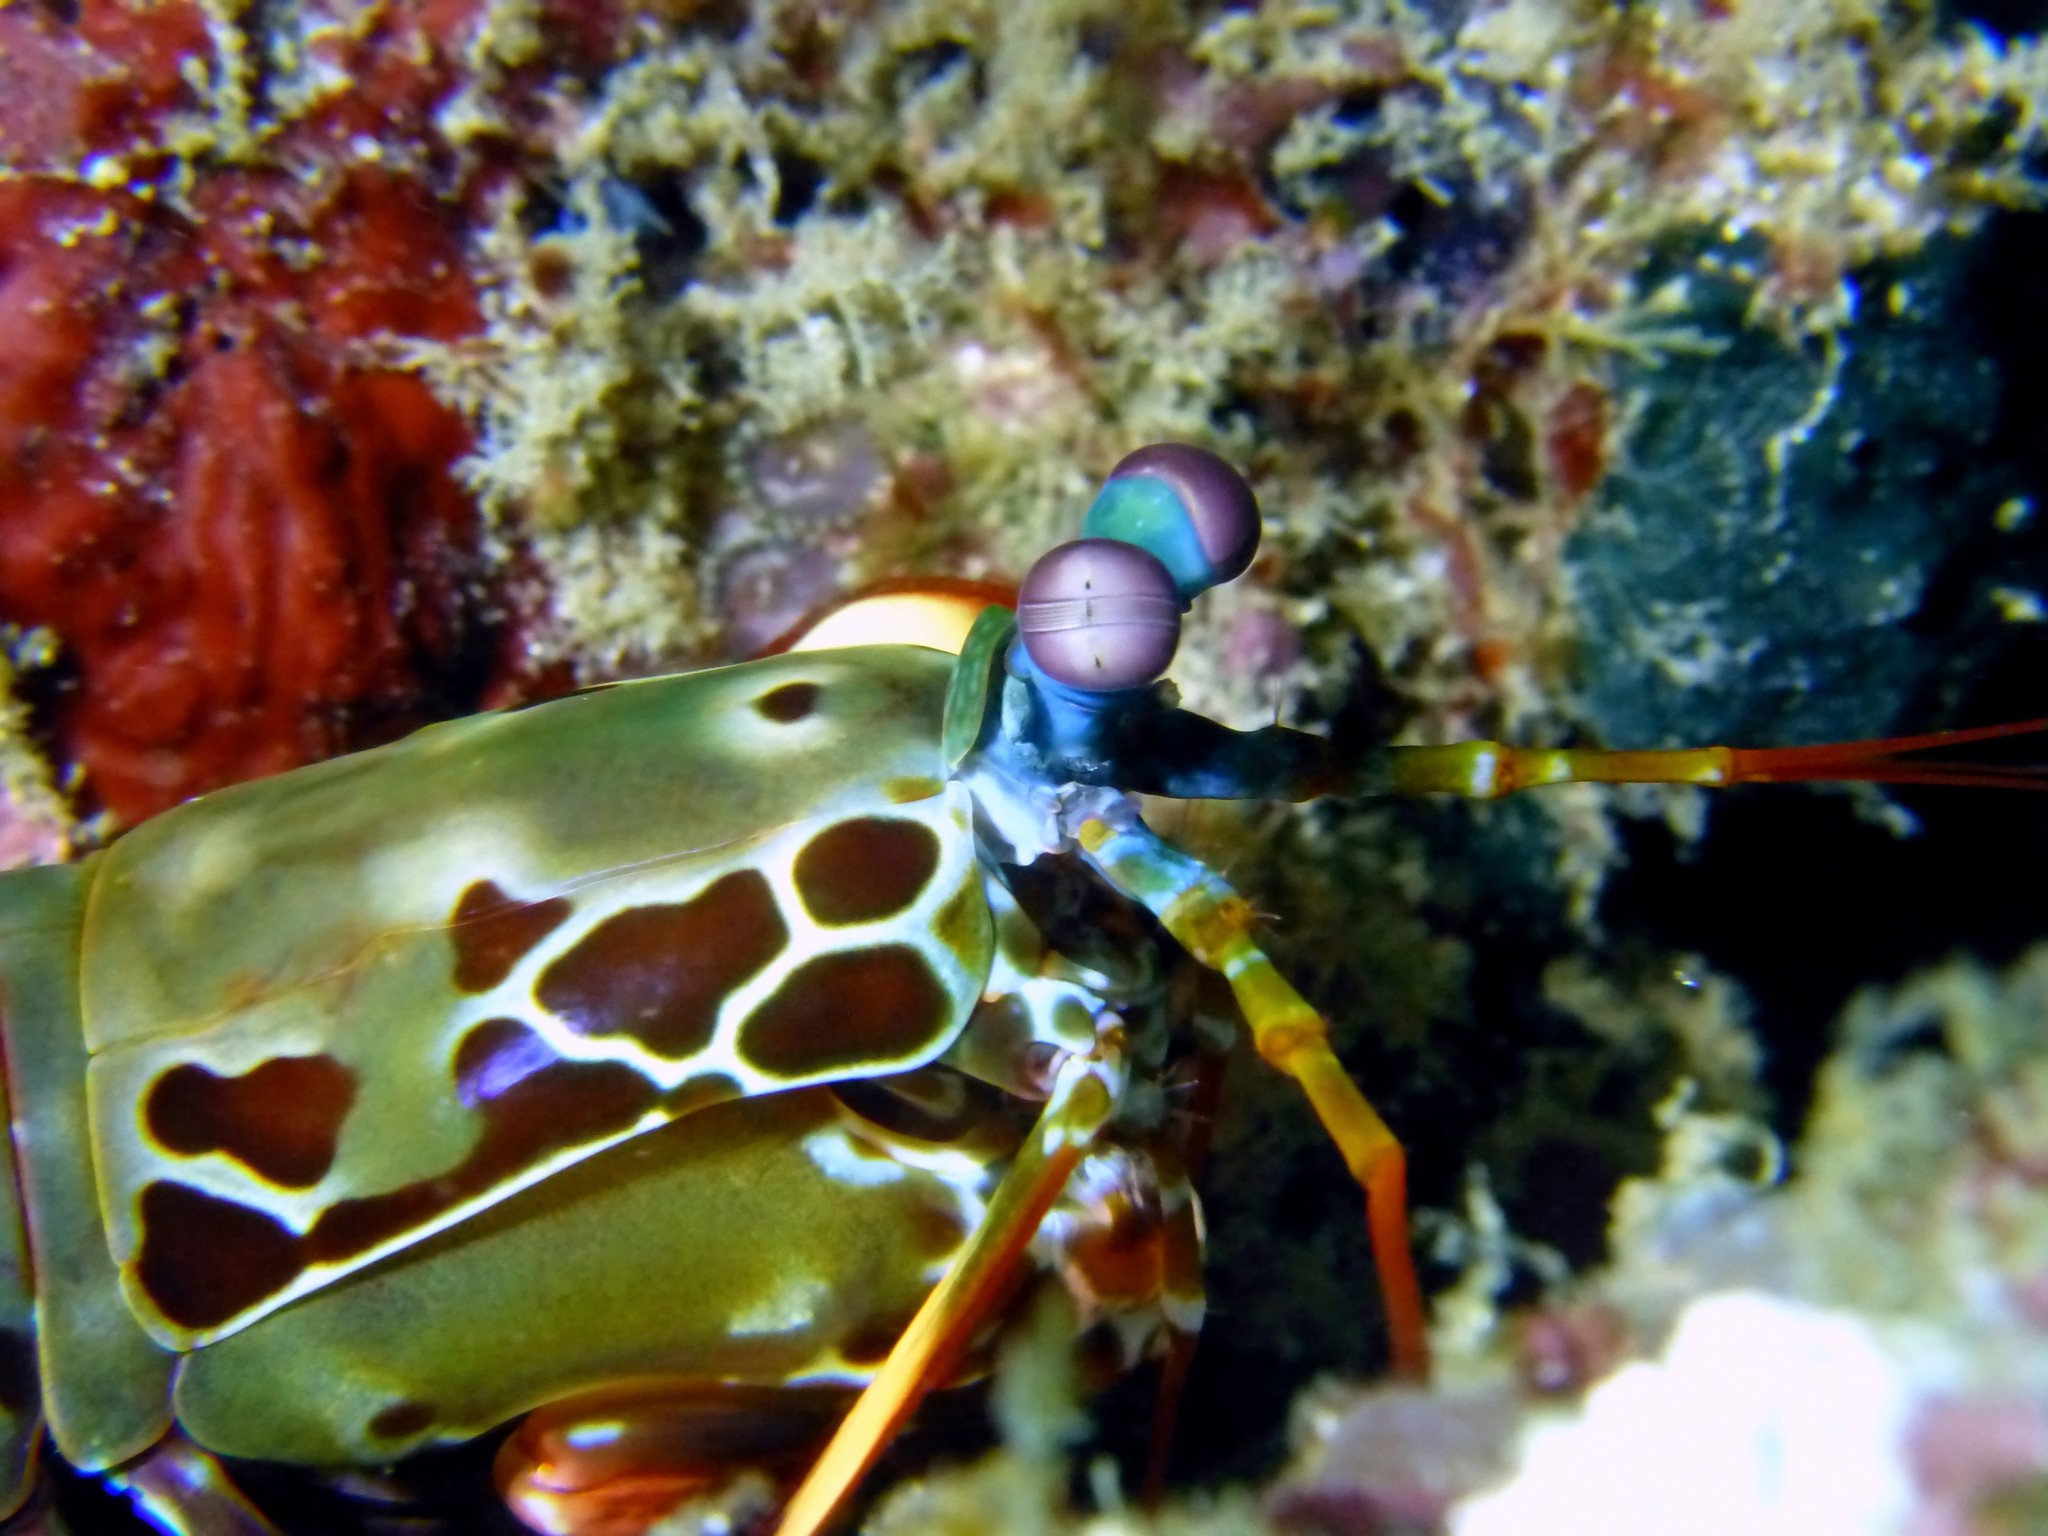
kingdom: Animalia
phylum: Arthropoda
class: Malacostraca
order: Stomatopoda
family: Odontodactylidae
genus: Odontodactylus
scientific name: Odontodactylus scyllarus
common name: Peacock mantis shrimp
